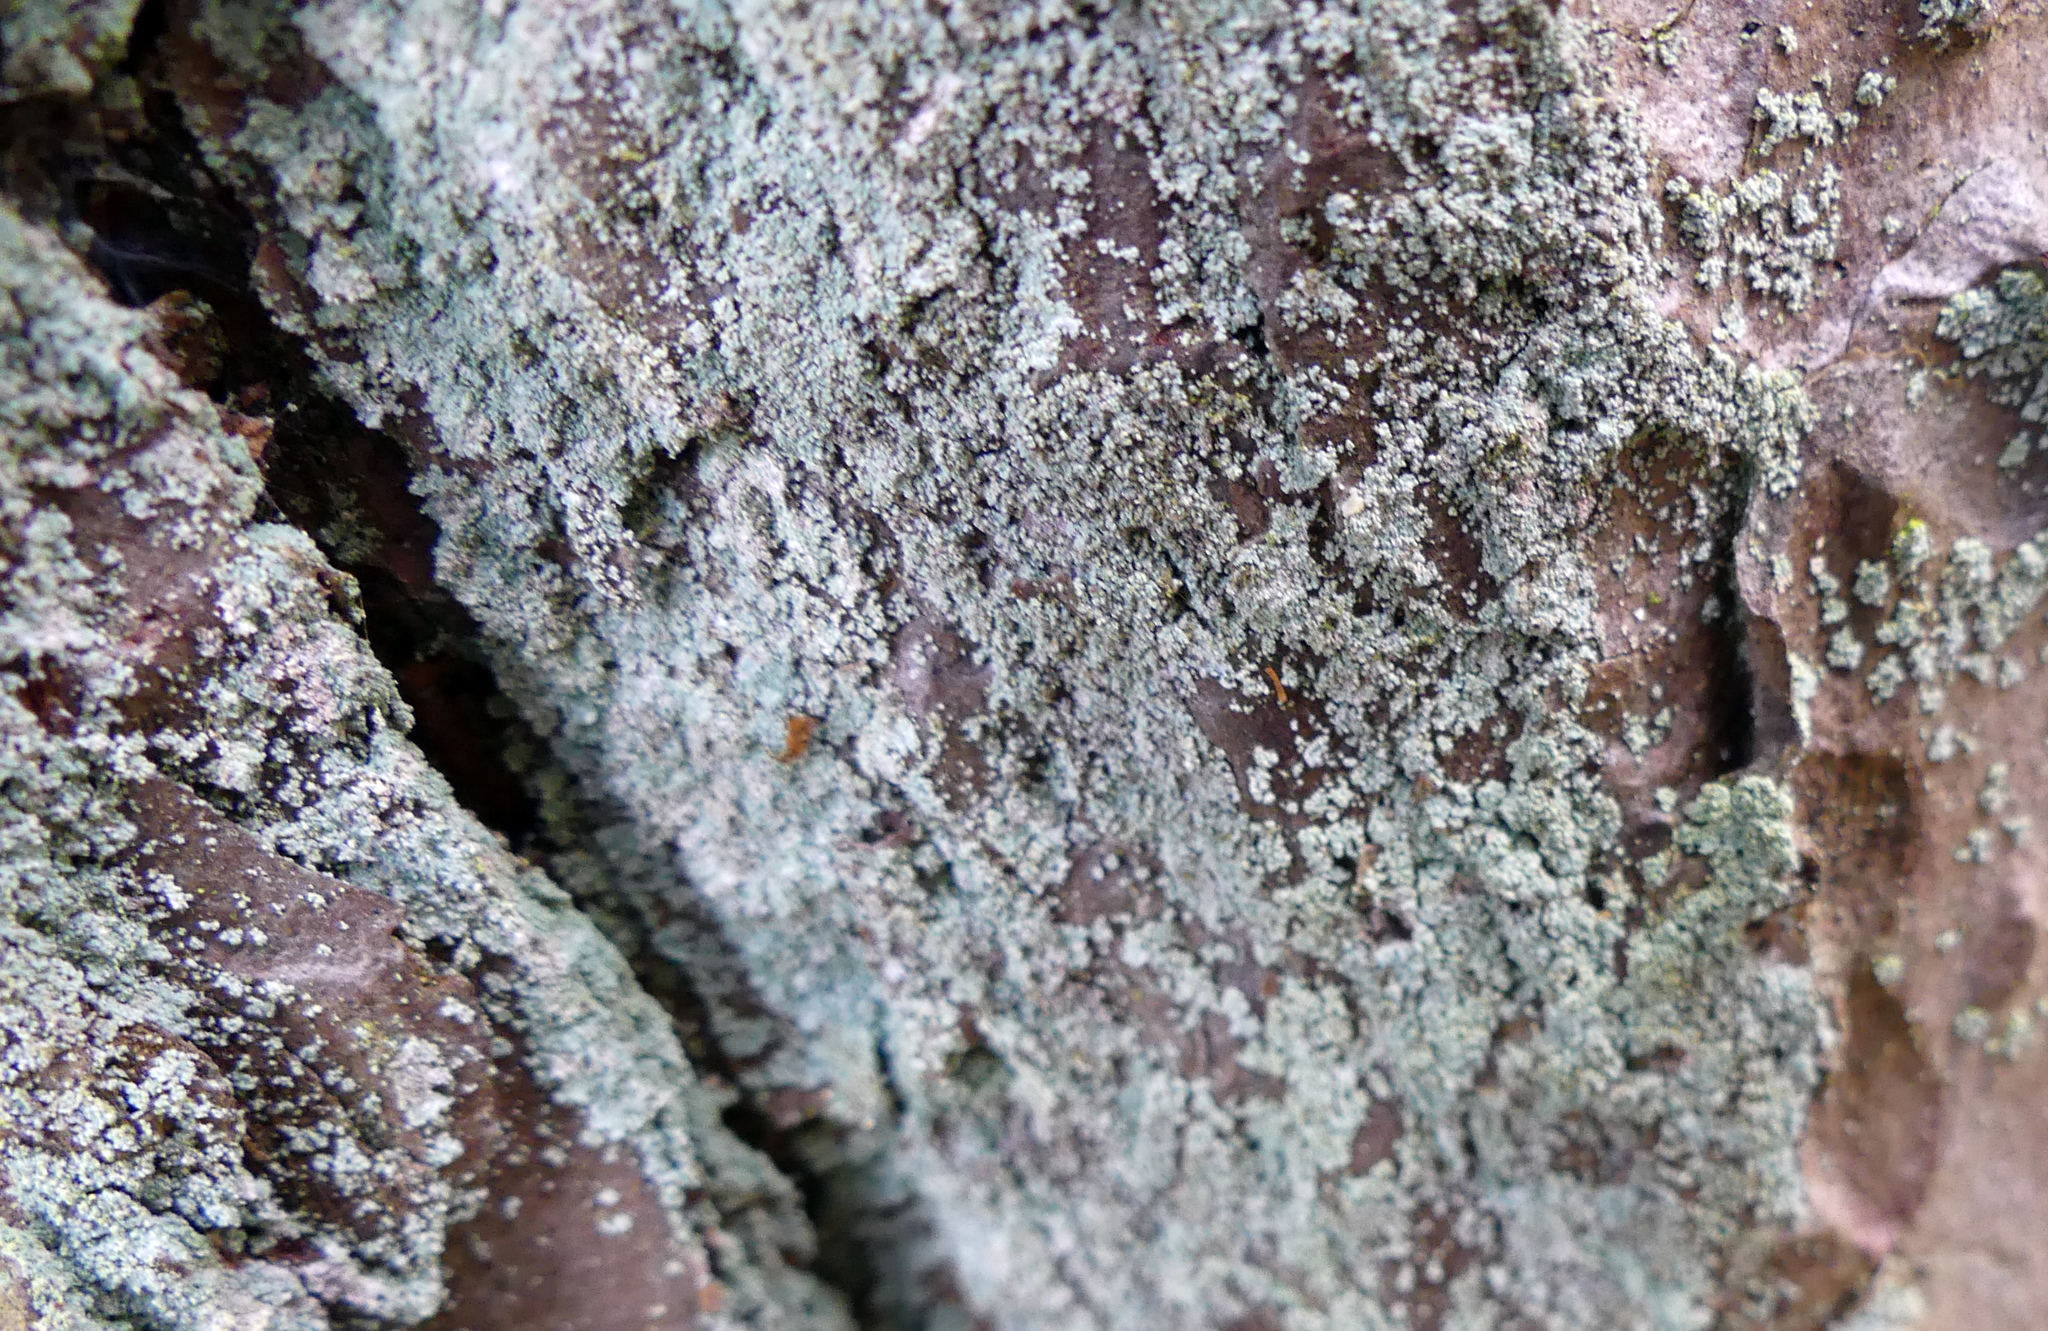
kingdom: Fungi
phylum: Ascomycota
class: Lecanoromycetes
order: Lecanorales
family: Stereocaulaceae
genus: Lepraria
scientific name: Lepraria
